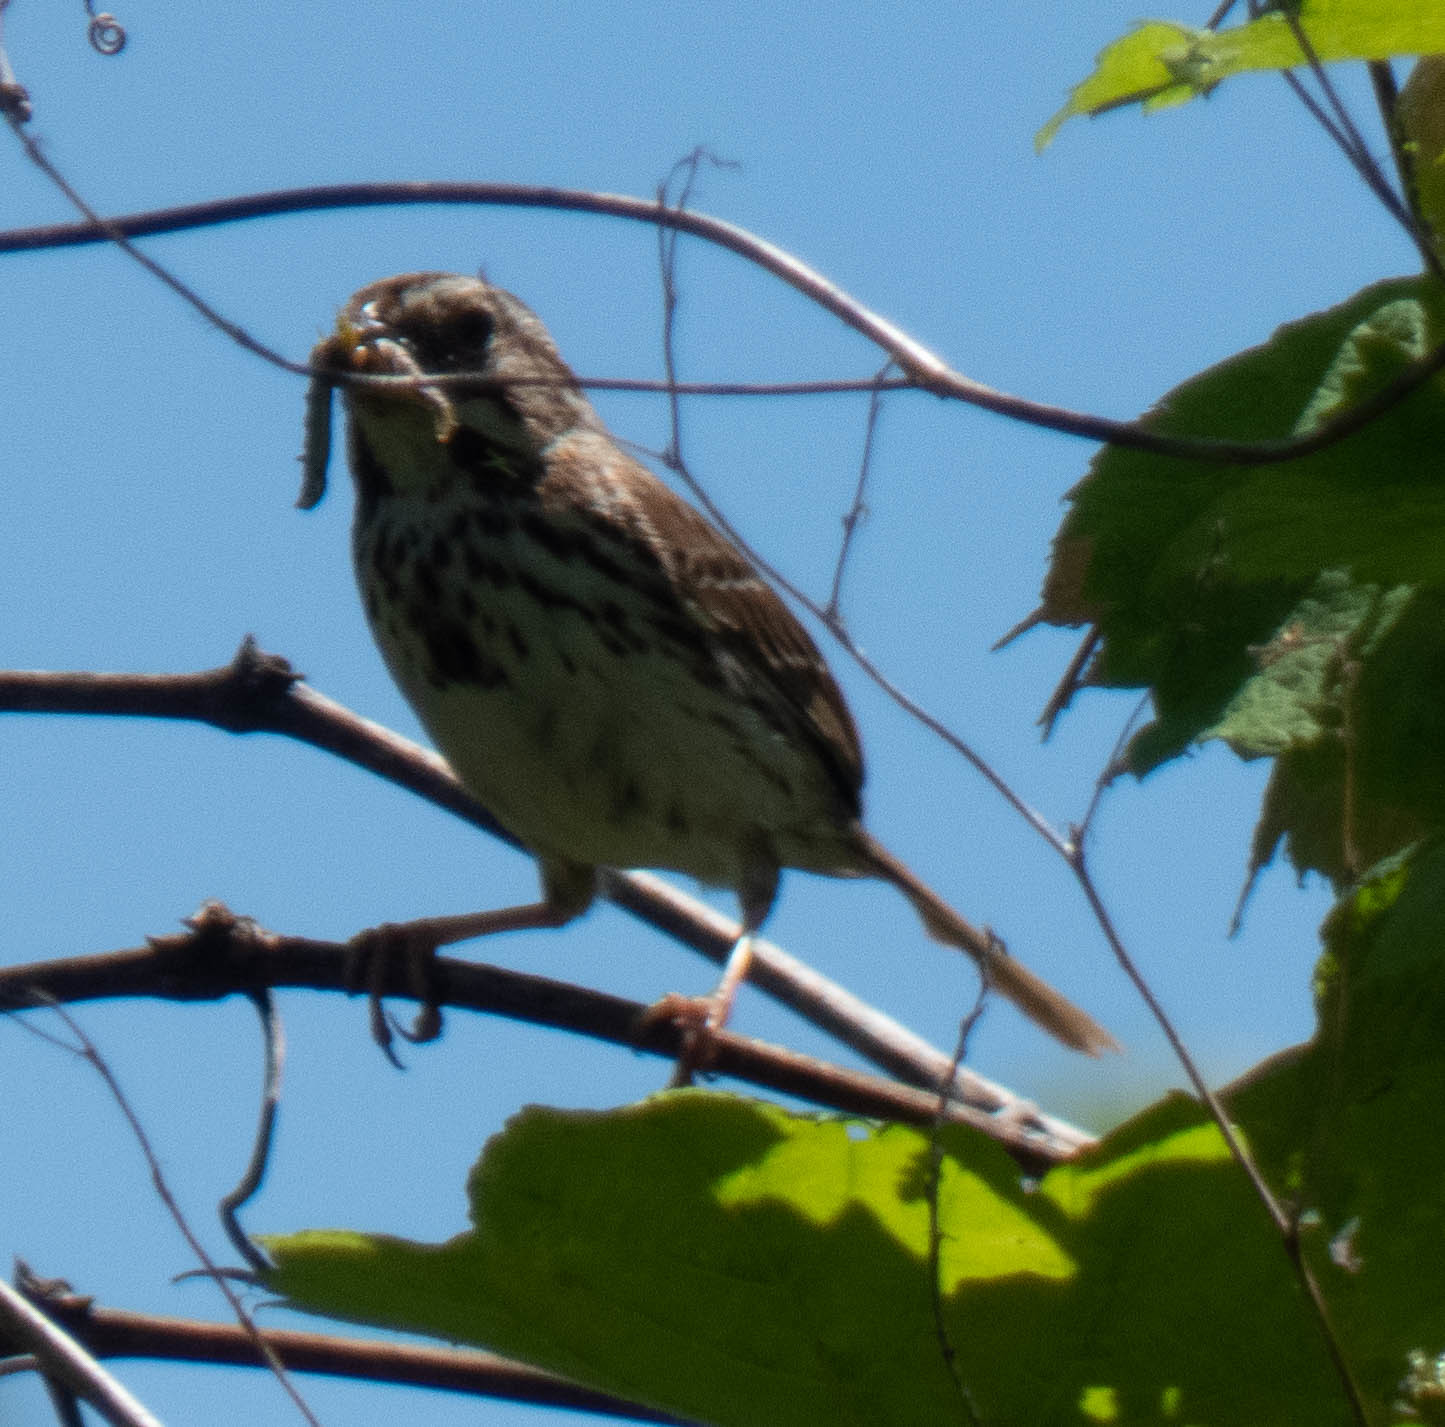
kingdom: Animalia
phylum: Chordata
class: Aves
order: Passeriformes
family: Passerellidae
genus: Melospiza
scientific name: Melospiza melodia
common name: Song sparrow
